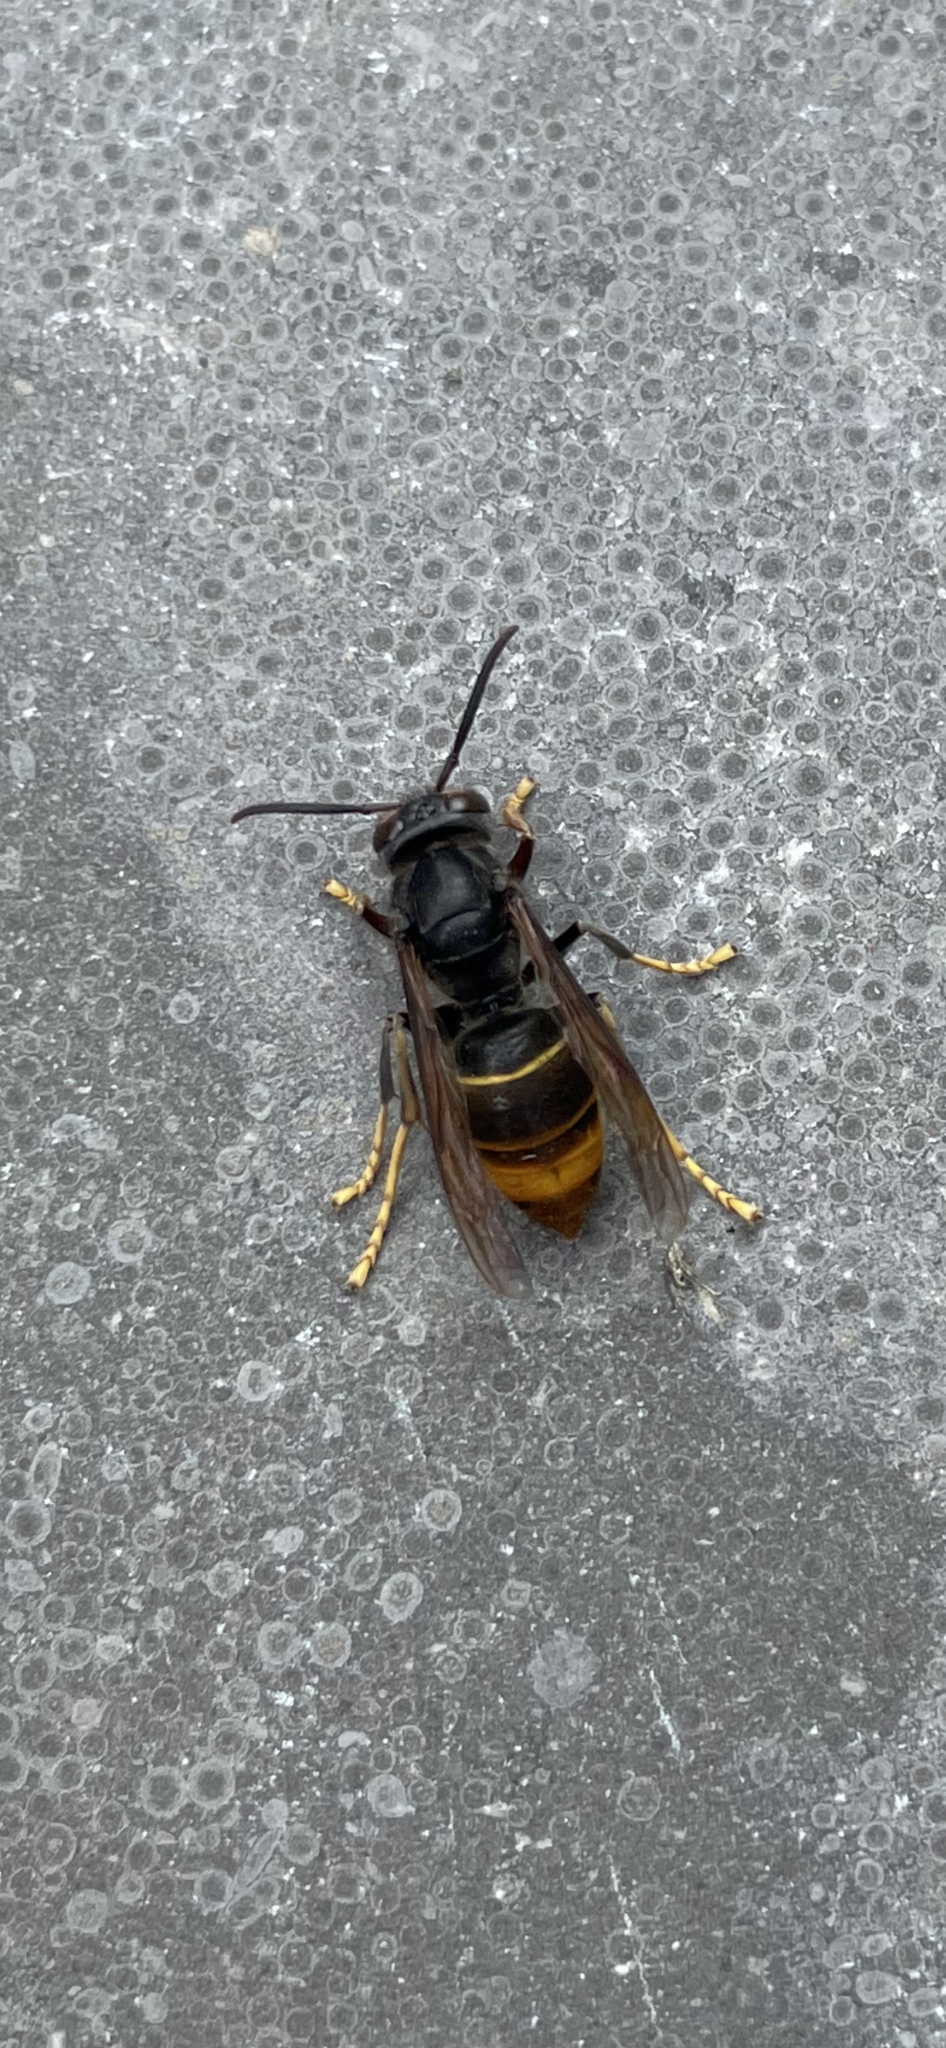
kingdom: Animalia
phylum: Arthropoda
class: Insecta
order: Hymenoptera
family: Vespidae
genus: Vespa
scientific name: Vespa velutina
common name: Asian hornet
